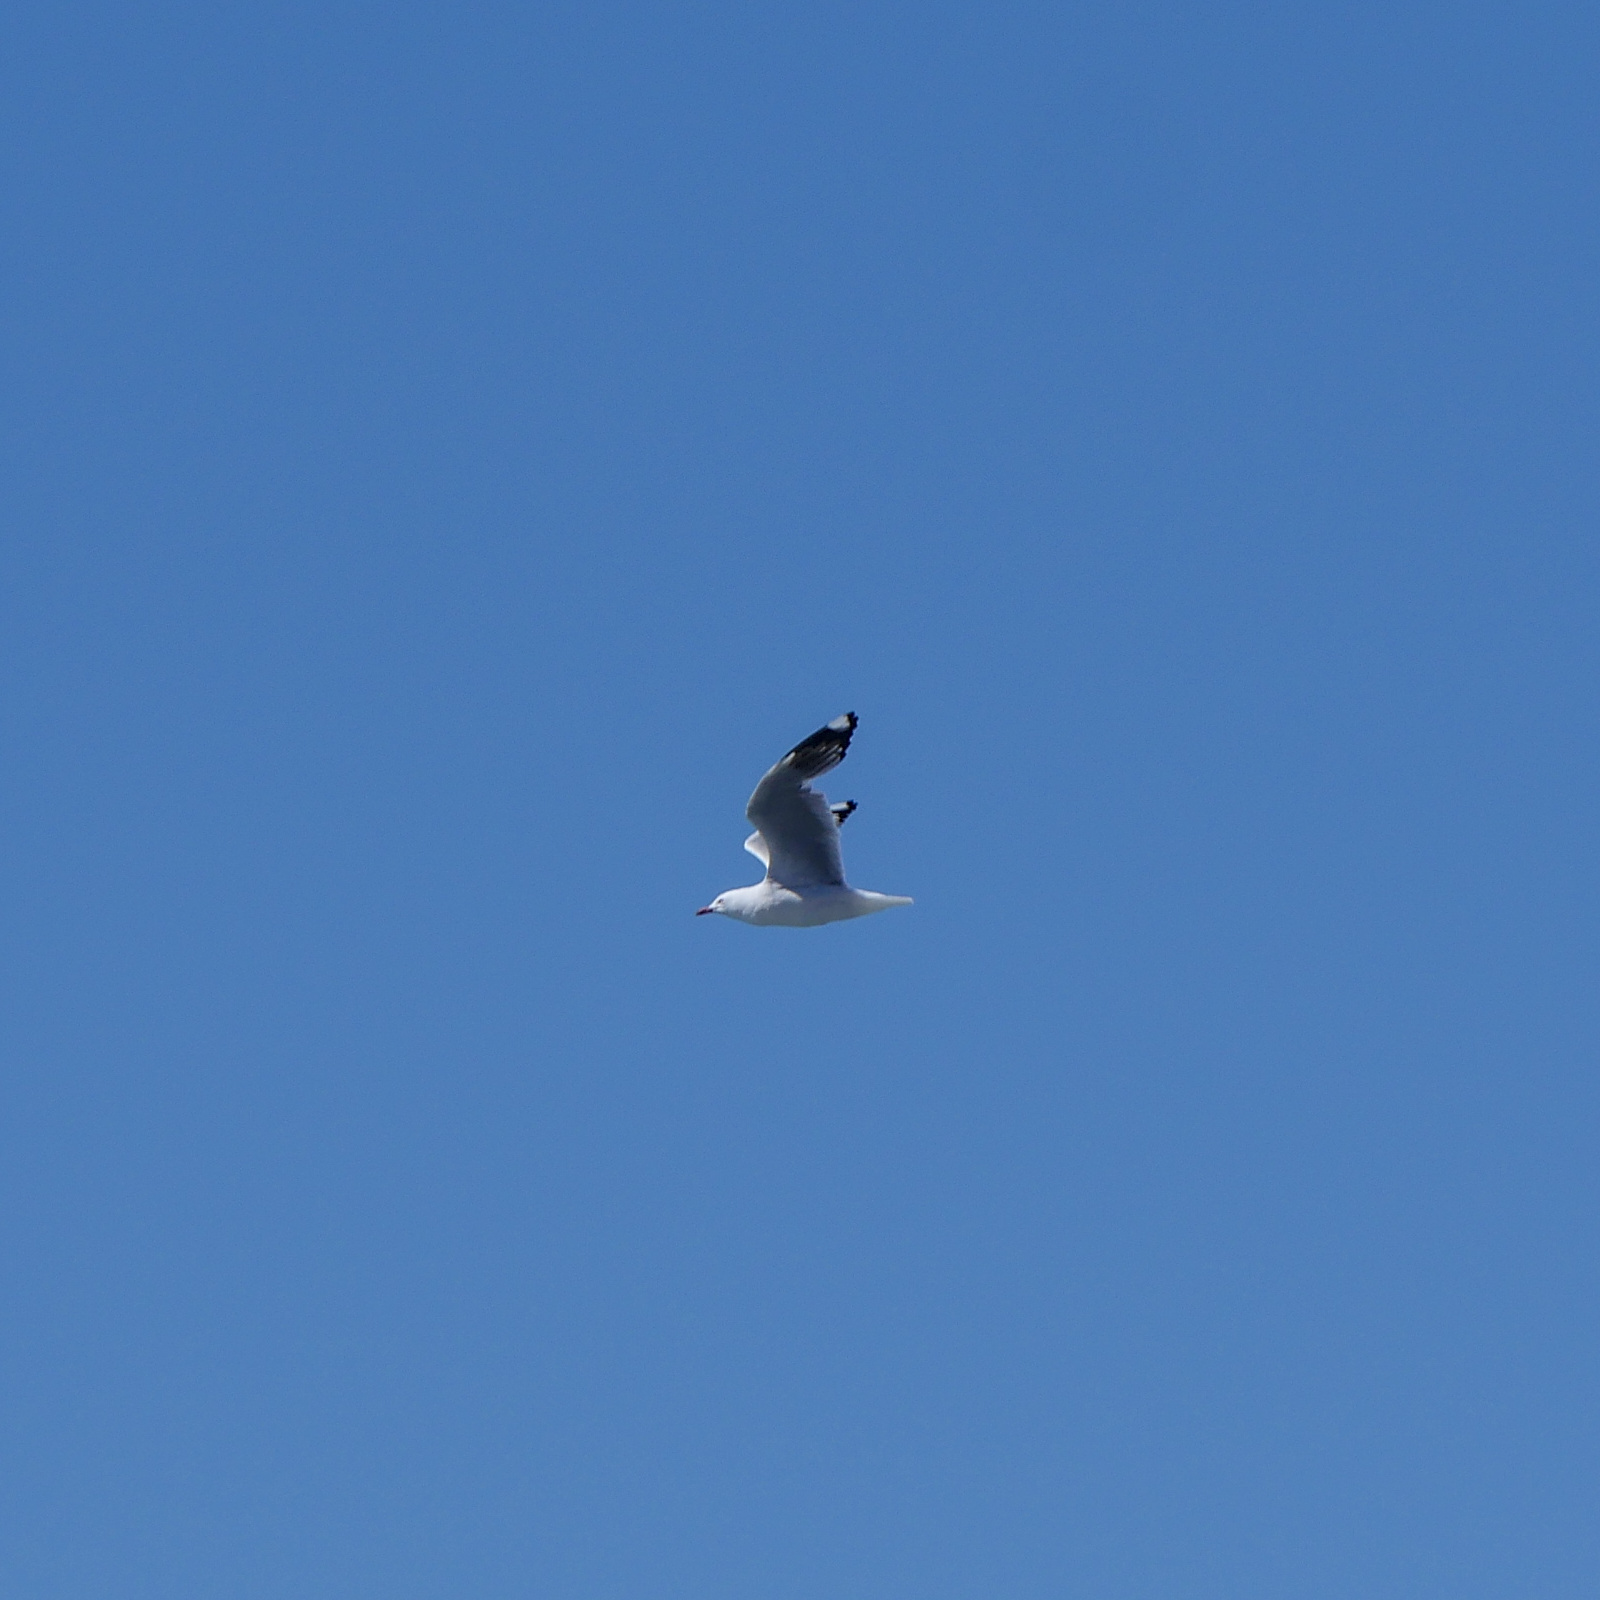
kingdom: Animalia
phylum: Chordata
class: Aves
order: Charadriiformes
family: Laridae
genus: Chroicocephalus
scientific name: Chroicocephalus novaehollandiae
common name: Silver gull
